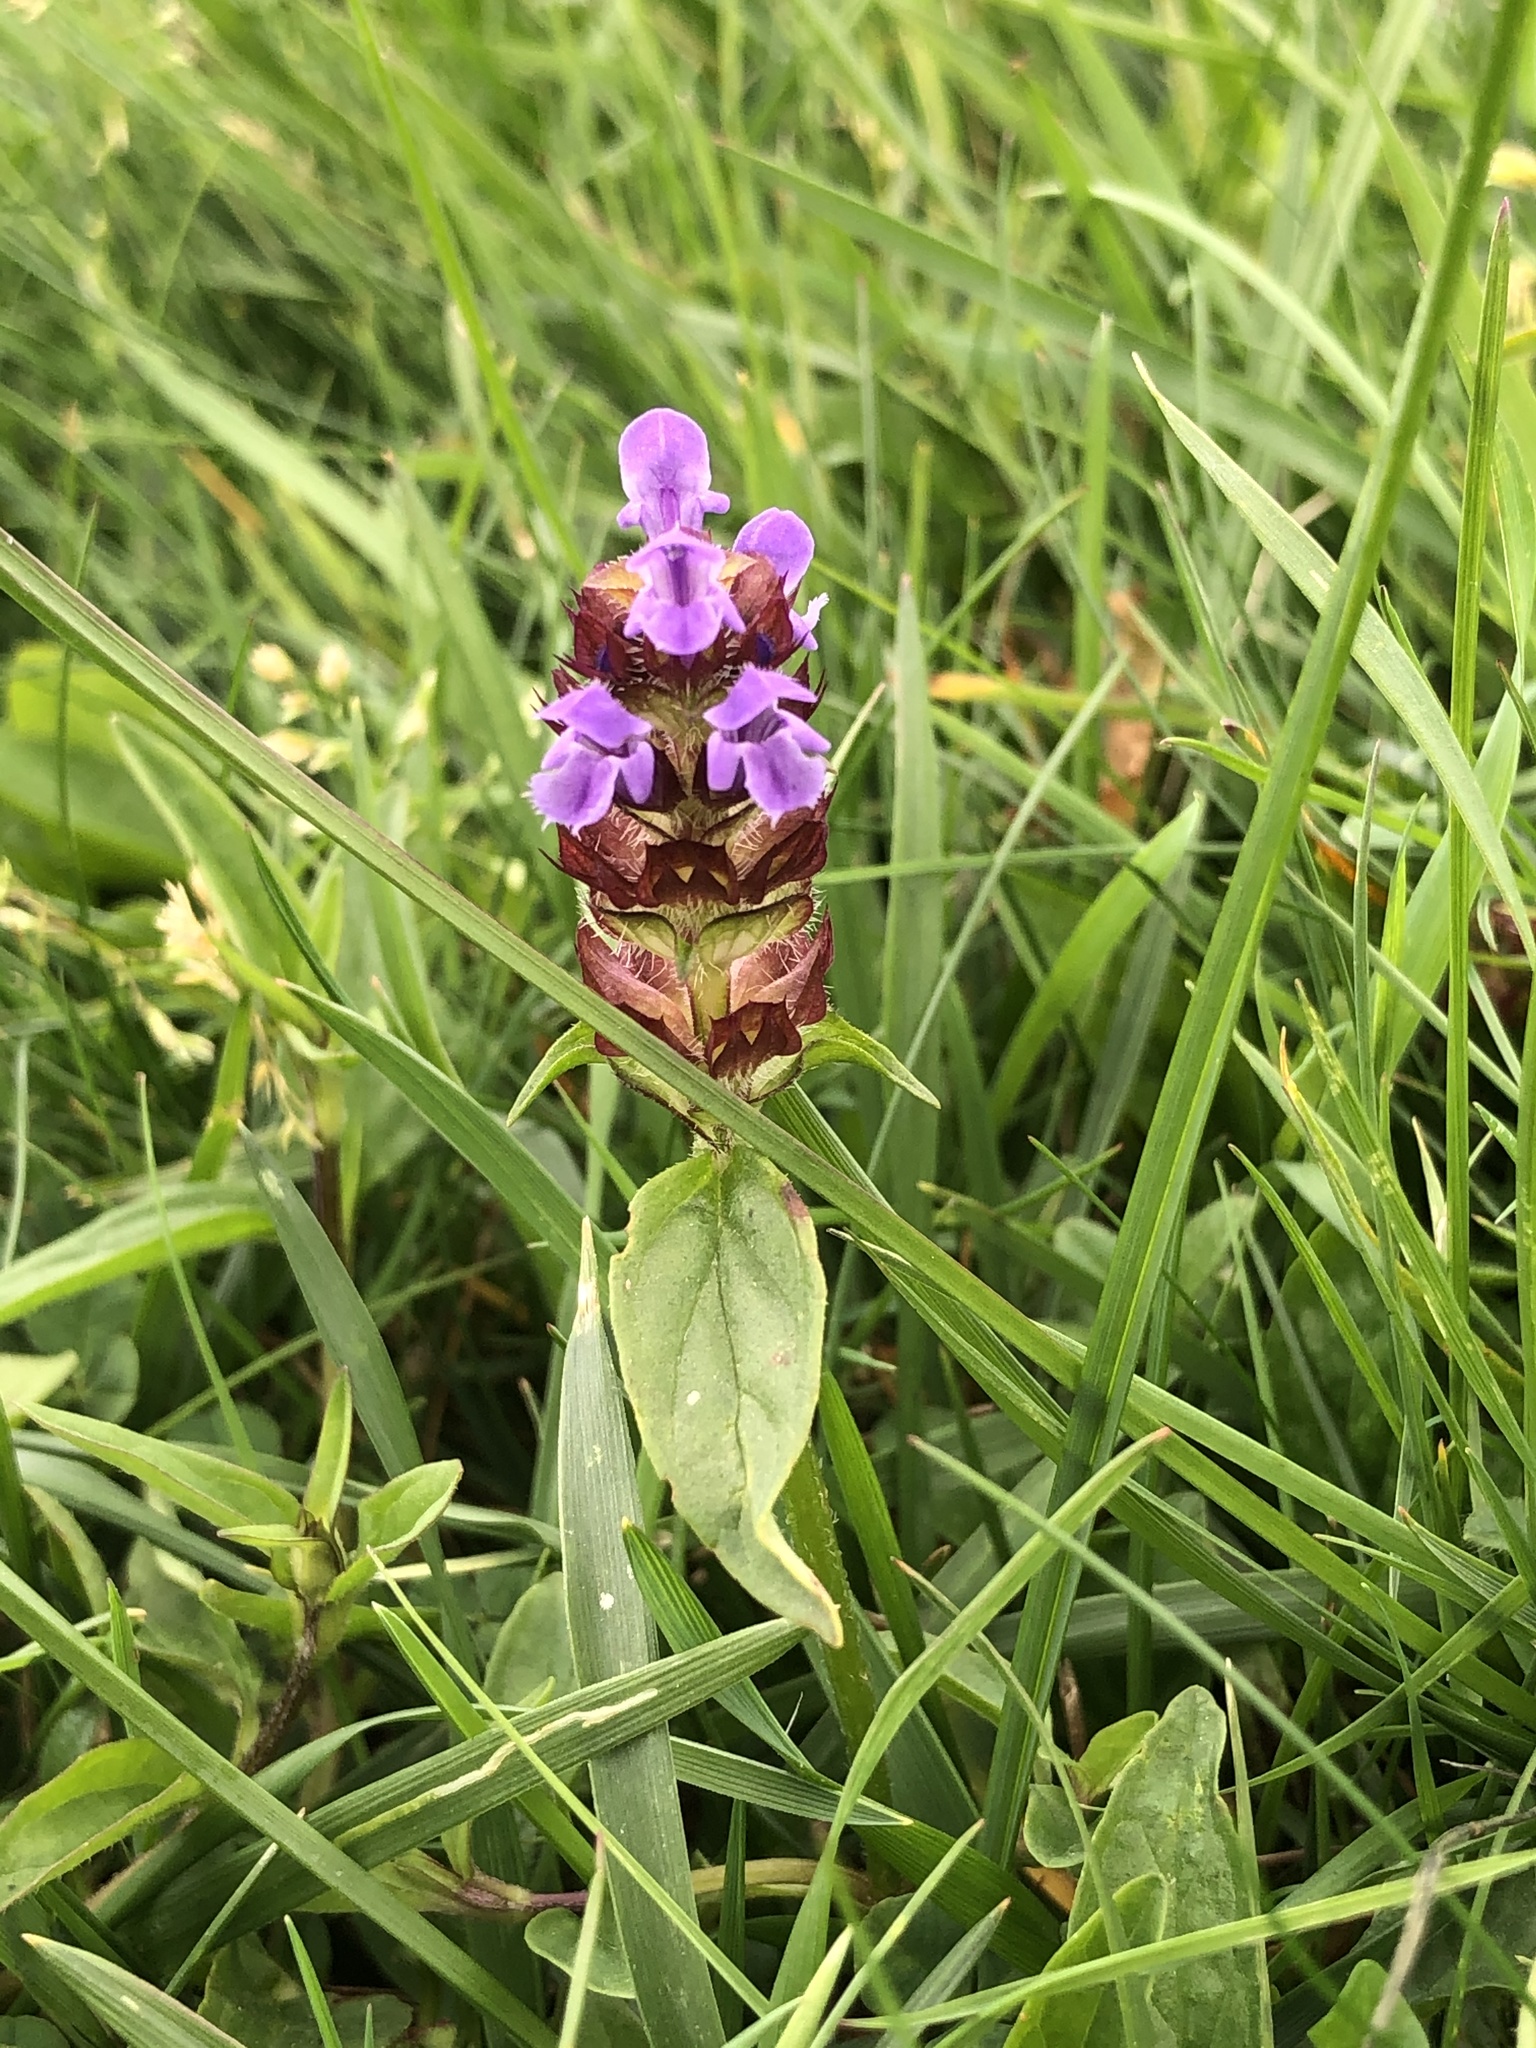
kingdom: Plantae
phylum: Tracheophyta
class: Magnoliopsida
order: Lamiales
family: Lamiaceae
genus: Prunella
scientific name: Prunella vulgaris
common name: Heal-all
